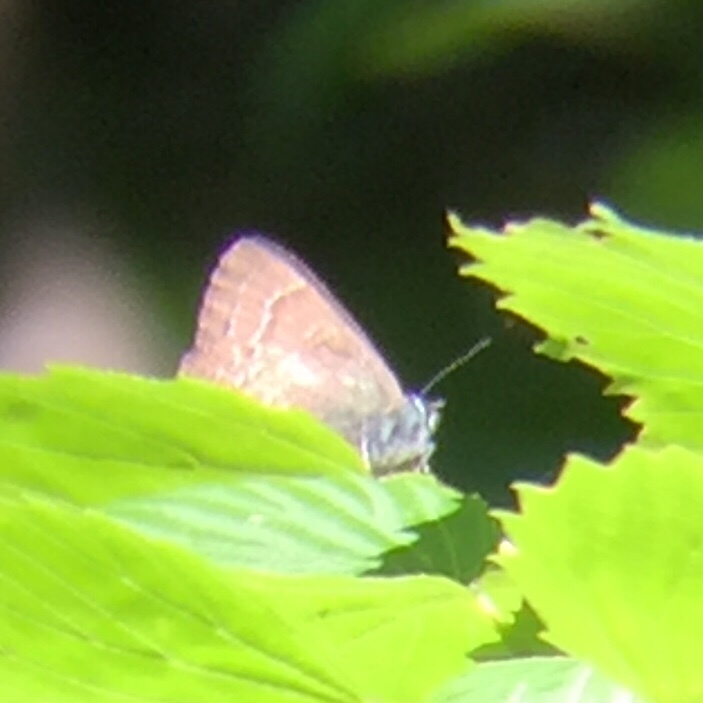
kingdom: Animalia
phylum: Arthropoda
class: Insecta
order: Lepidoptera
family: Lycaenidae
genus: Satyrium
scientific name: Satyrium calanus
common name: Banded hairstreak
